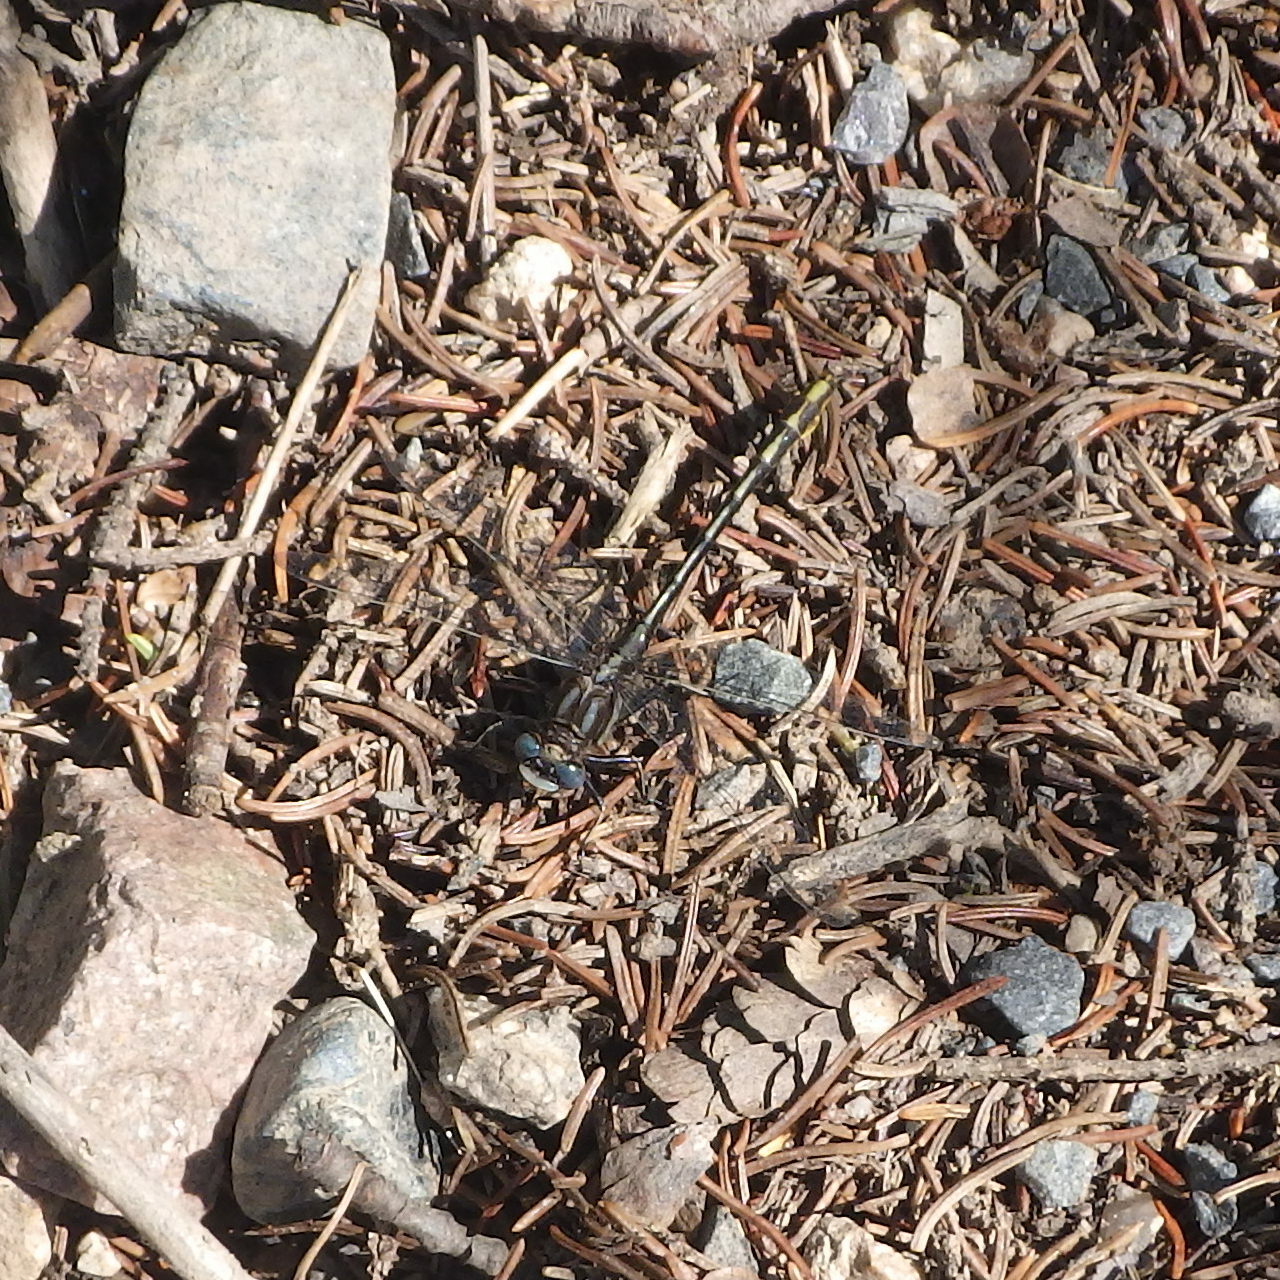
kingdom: Animalia
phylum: Arthropoda
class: Insecta
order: Odonata
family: Gomphidae
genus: Phanogomphus
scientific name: Phanogomphus exilis
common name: Lancet clubtail
